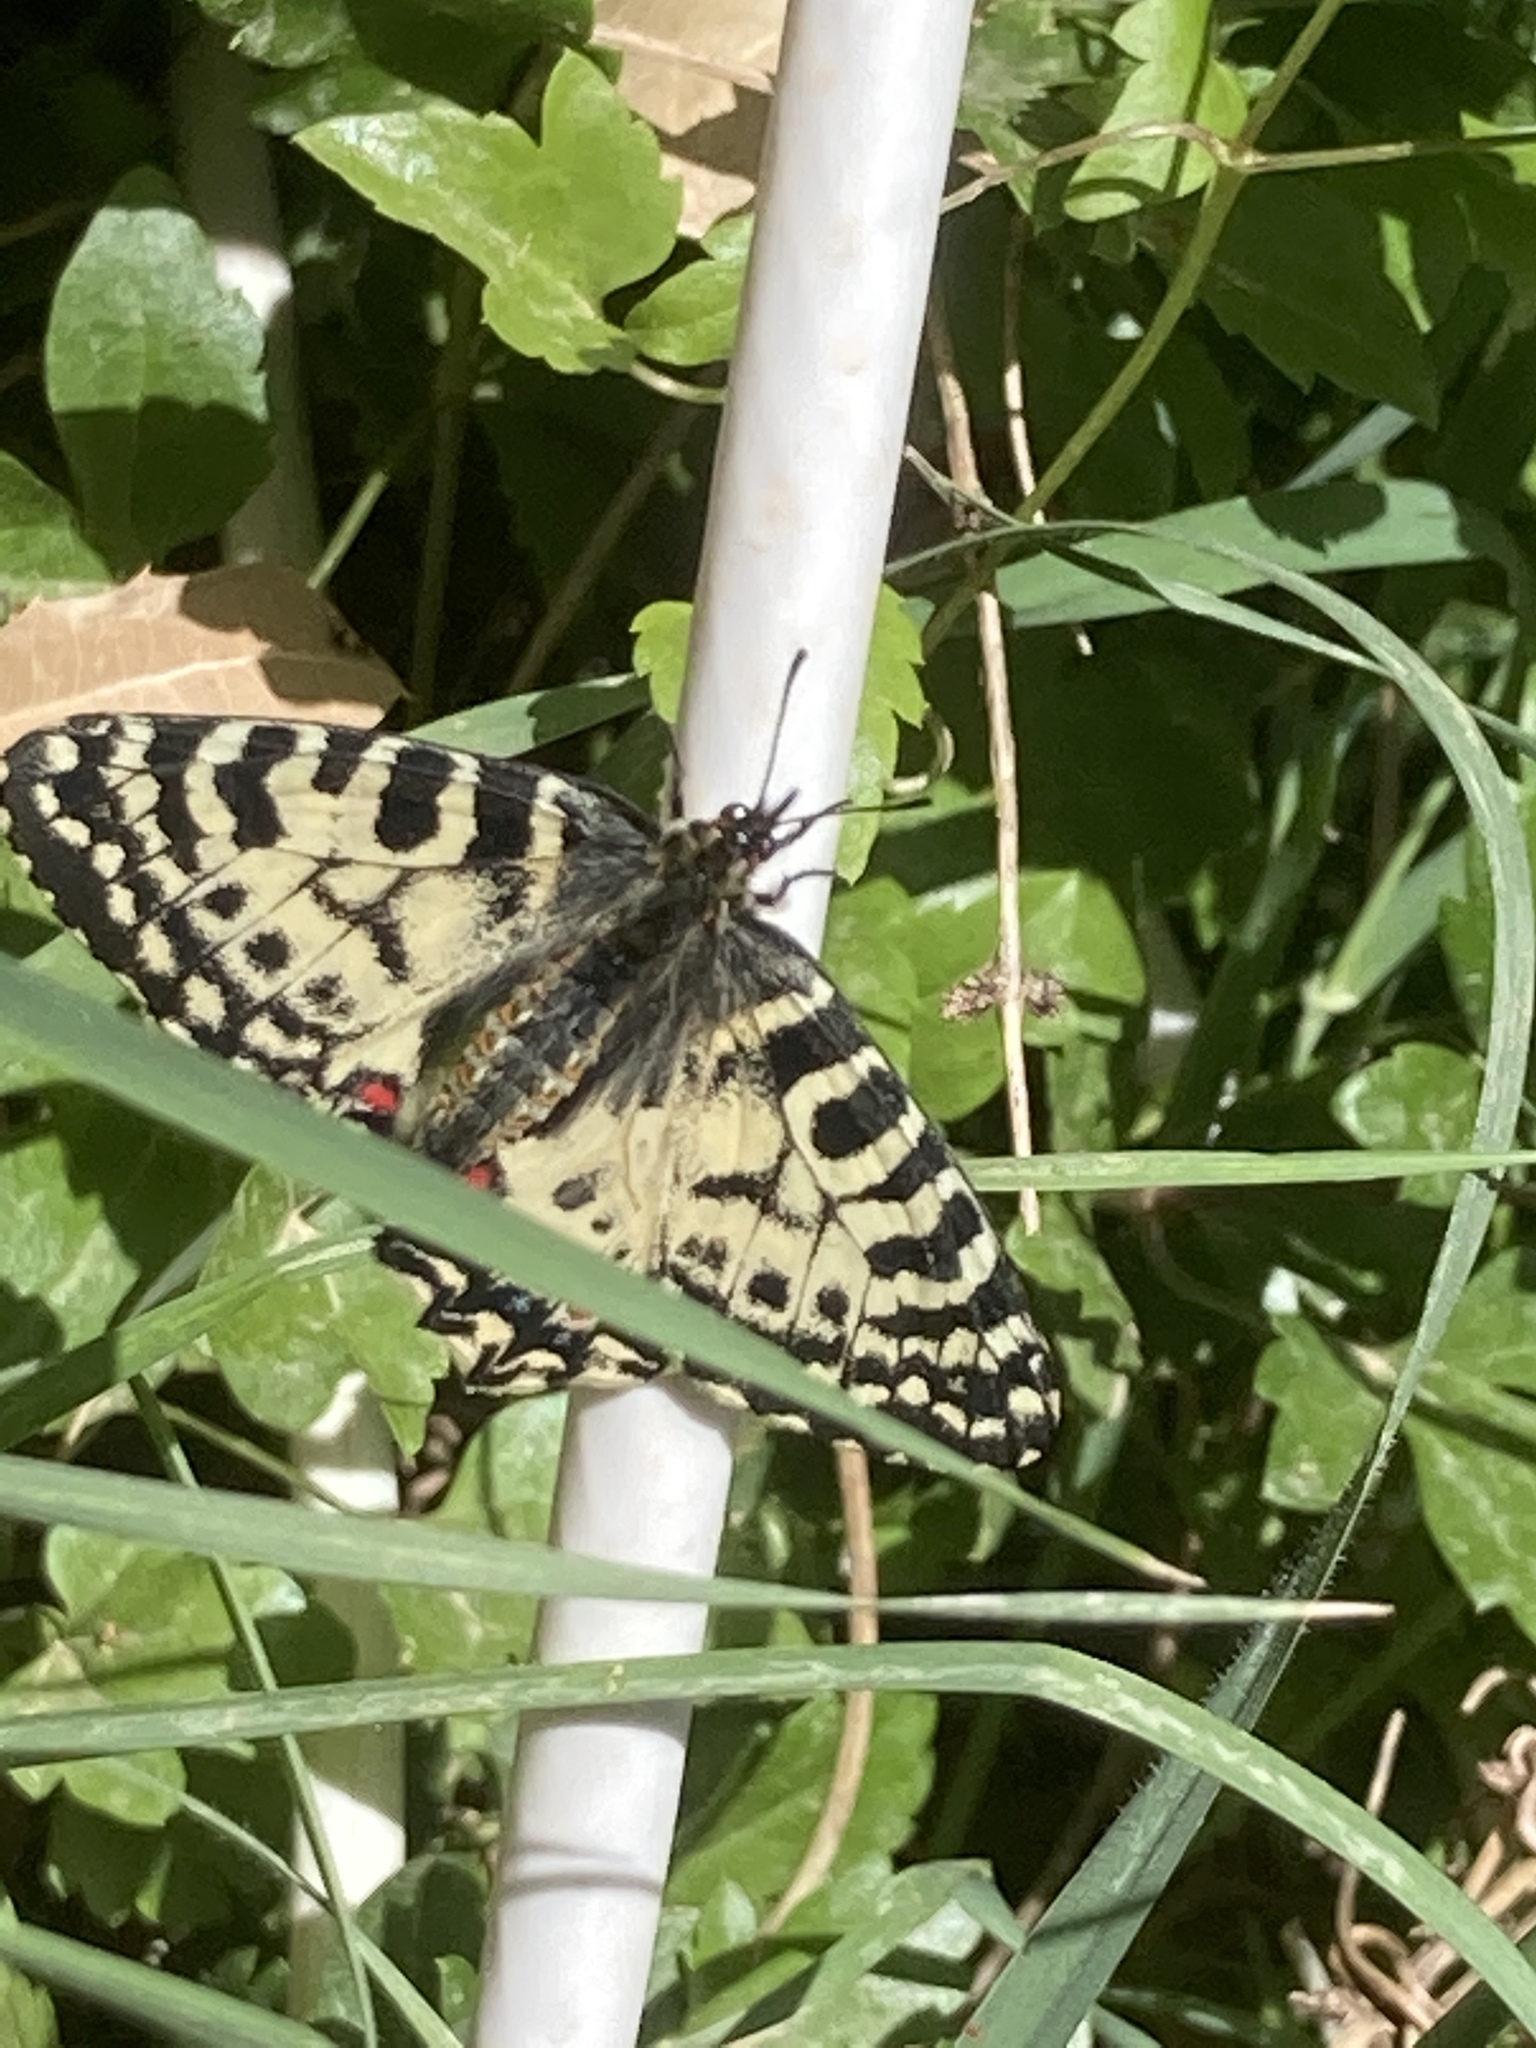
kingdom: Animalia
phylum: Arthropoda
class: Insecta
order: Lepidoptera
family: Papilionidae
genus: Zerynthia
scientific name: Zerynthia cretica
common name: Cretan festoon
